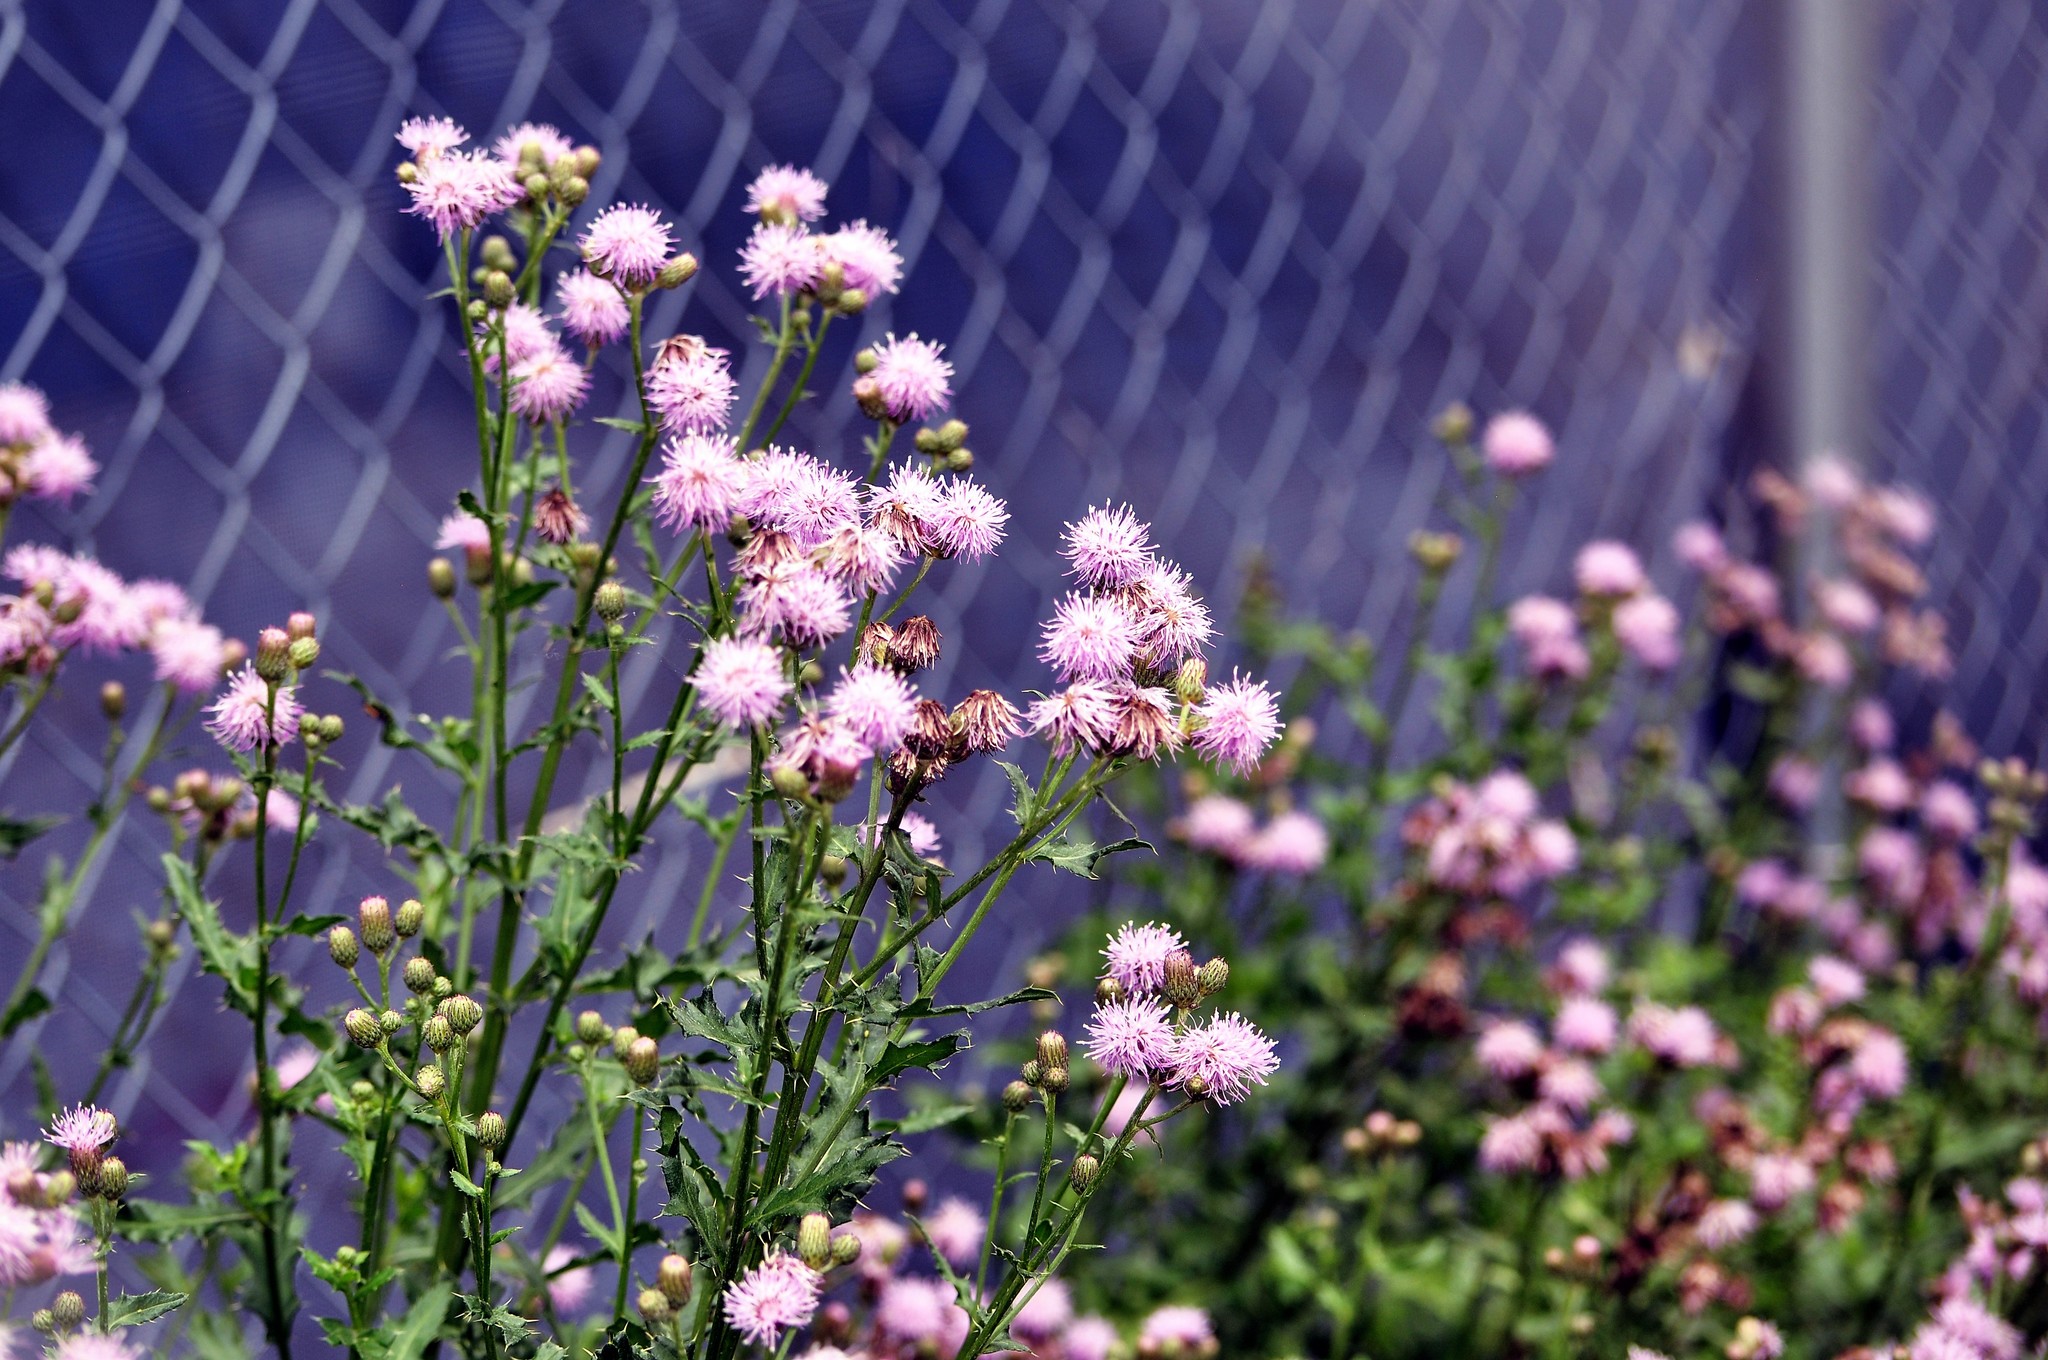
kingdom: Plantae
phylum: Tracheophyta
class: Magnoliopsida
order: Asterales
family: Asteraceae
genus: Cirsium
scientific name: Cirsium arvense
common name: Creeping thistle
